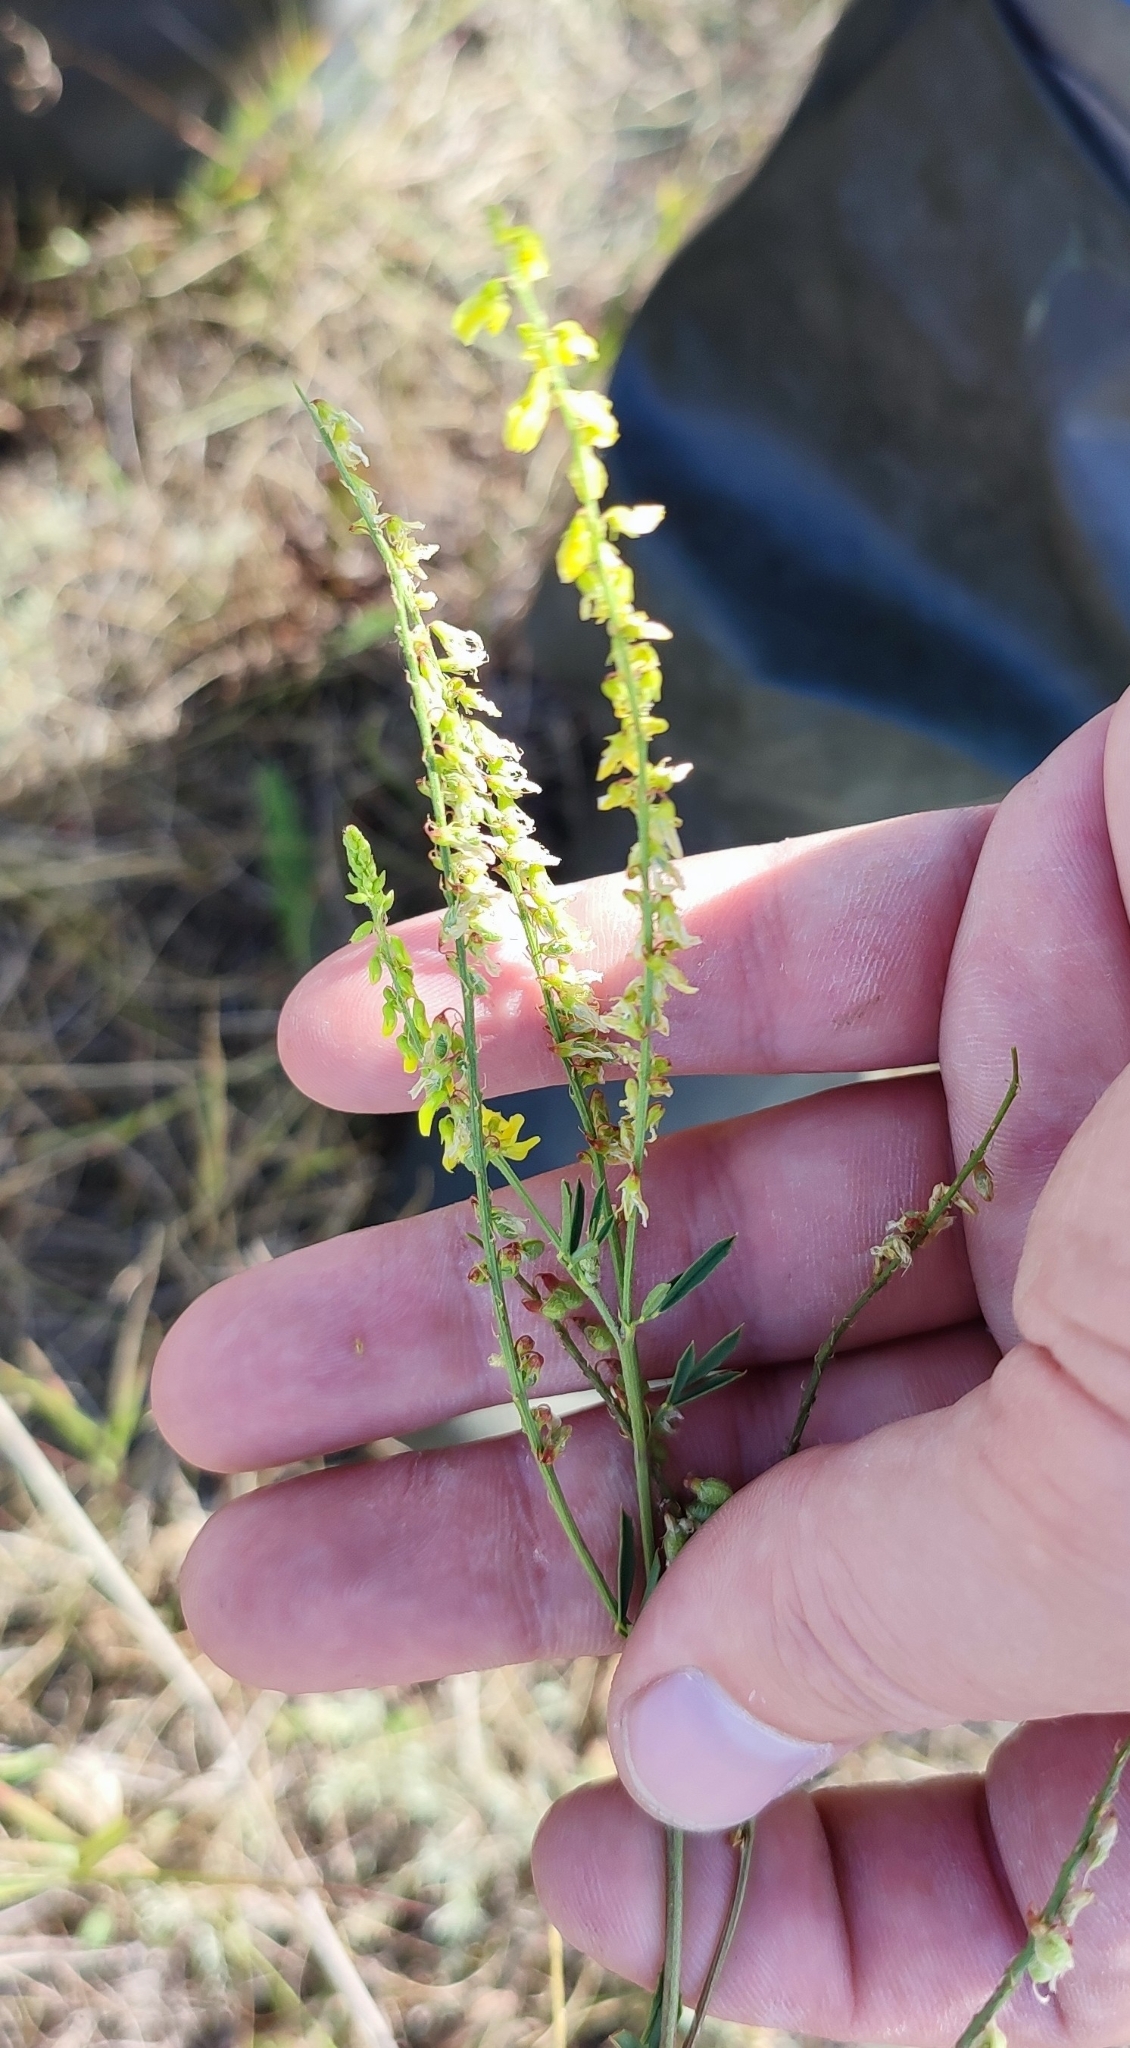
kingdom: Plantae
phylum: Tracheophyta
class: Magnoliopsida
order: Fabales
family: Fabaceae
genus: Melilotus
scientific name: Melilotus officinalis
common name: Sweetclover
